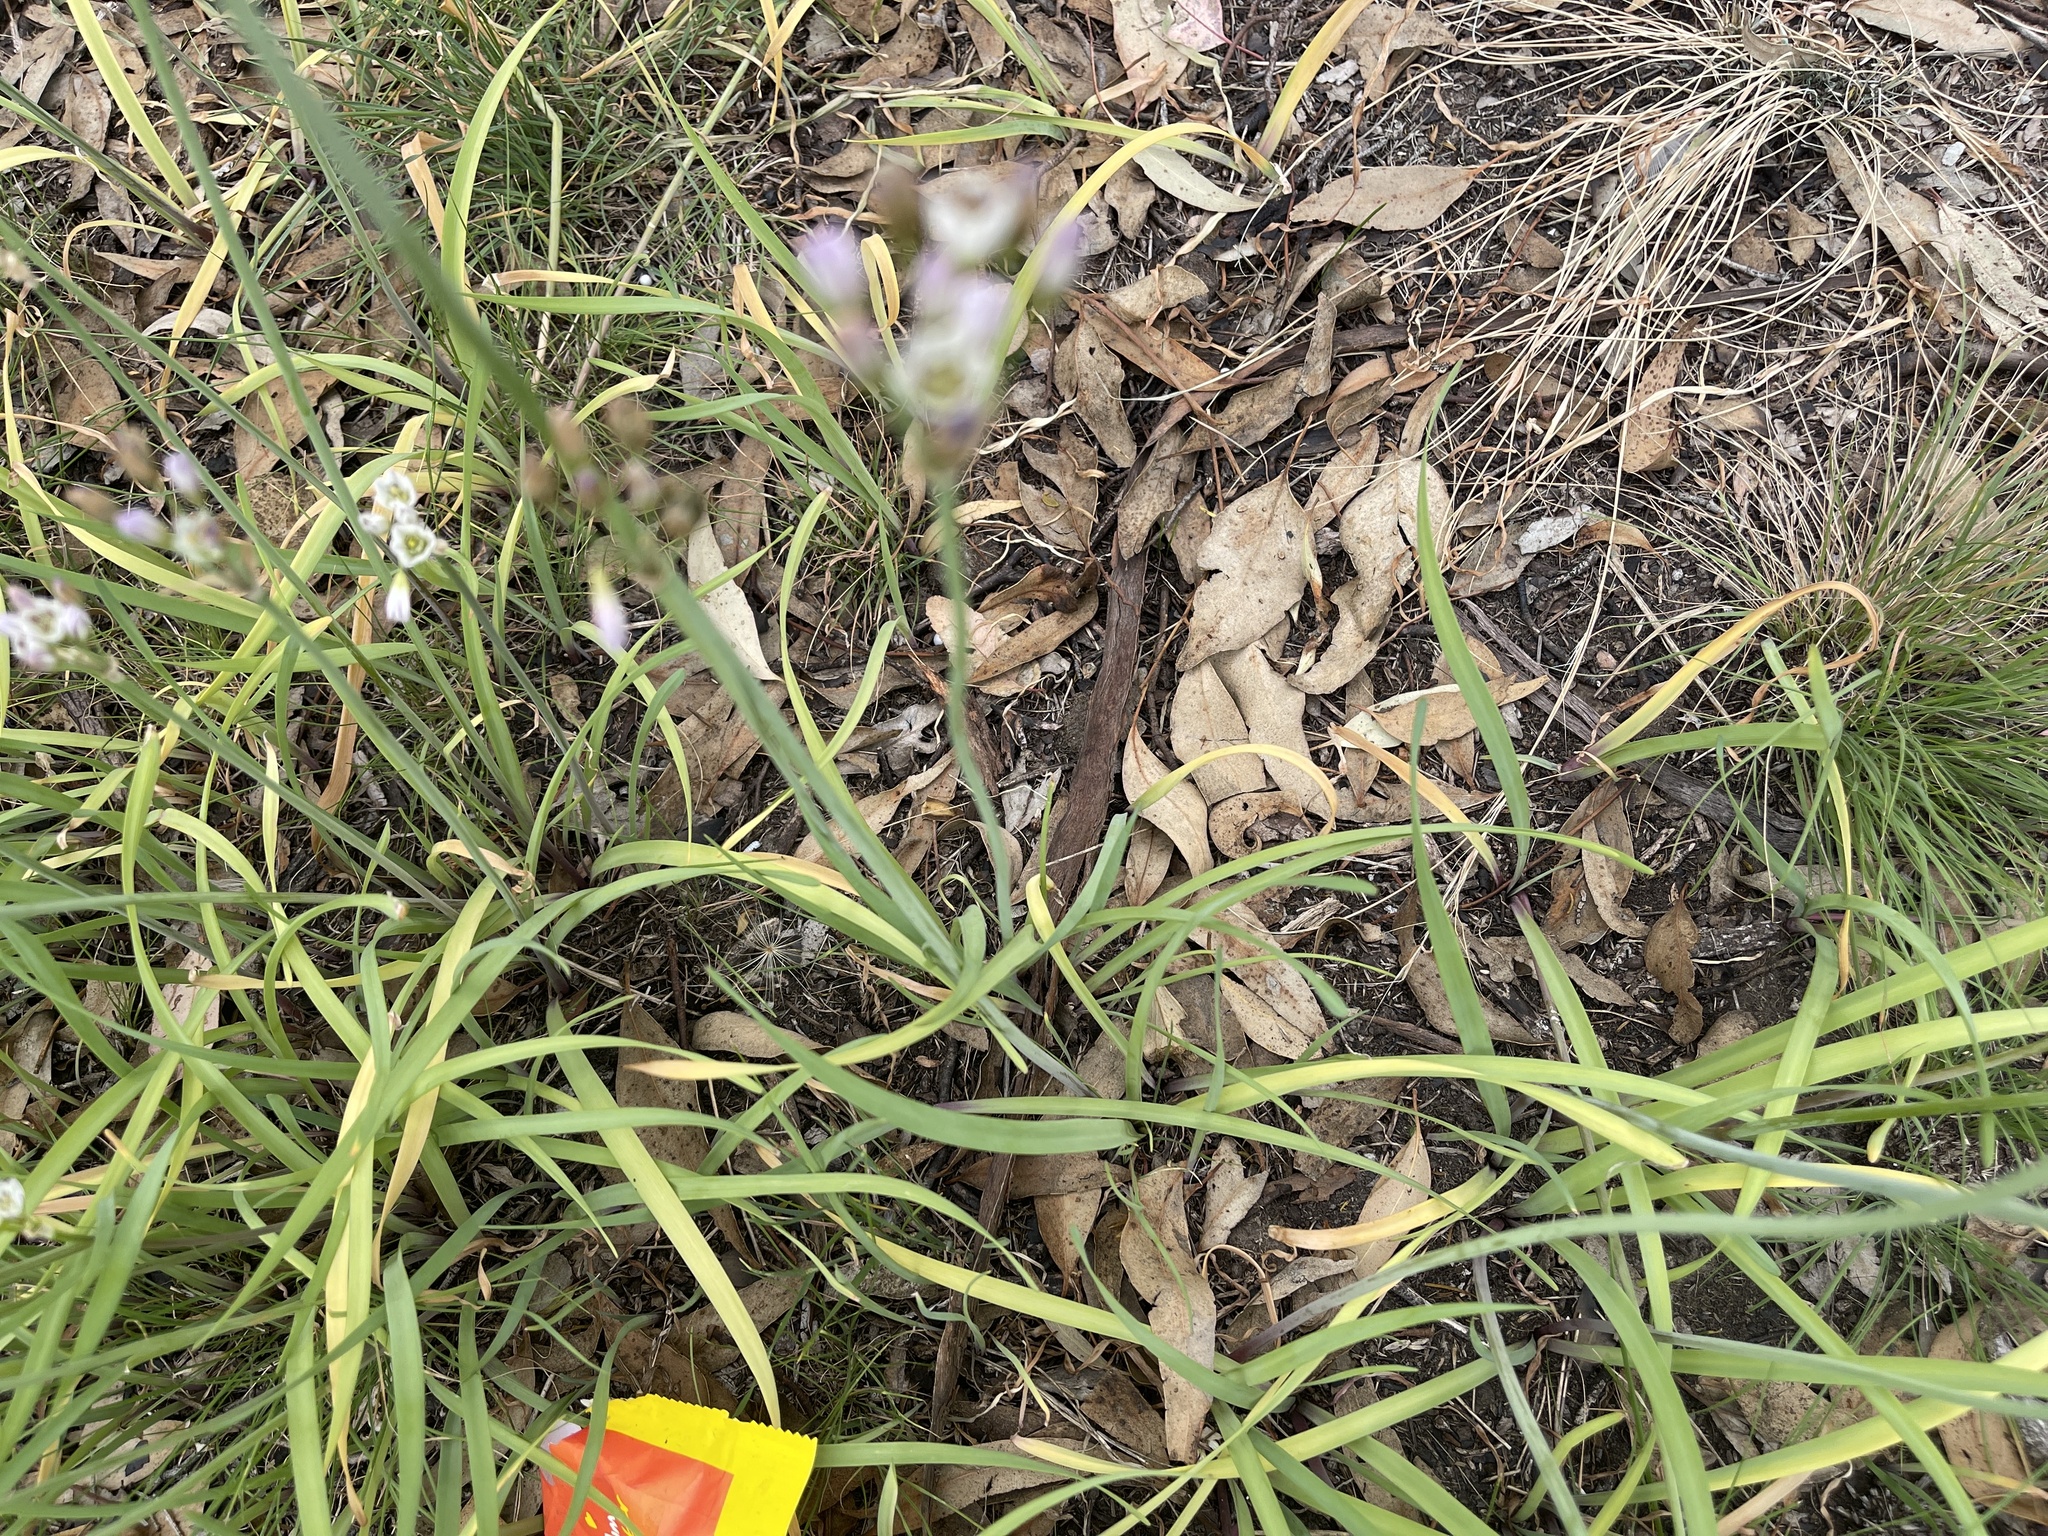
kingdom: Plantae
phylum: Tracheophyta
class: Liliopsida
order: Asparagales
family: Amaryllidaceae
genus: Nothoscordum
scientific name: Nothoscordum gracile
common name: Slender false garlic
